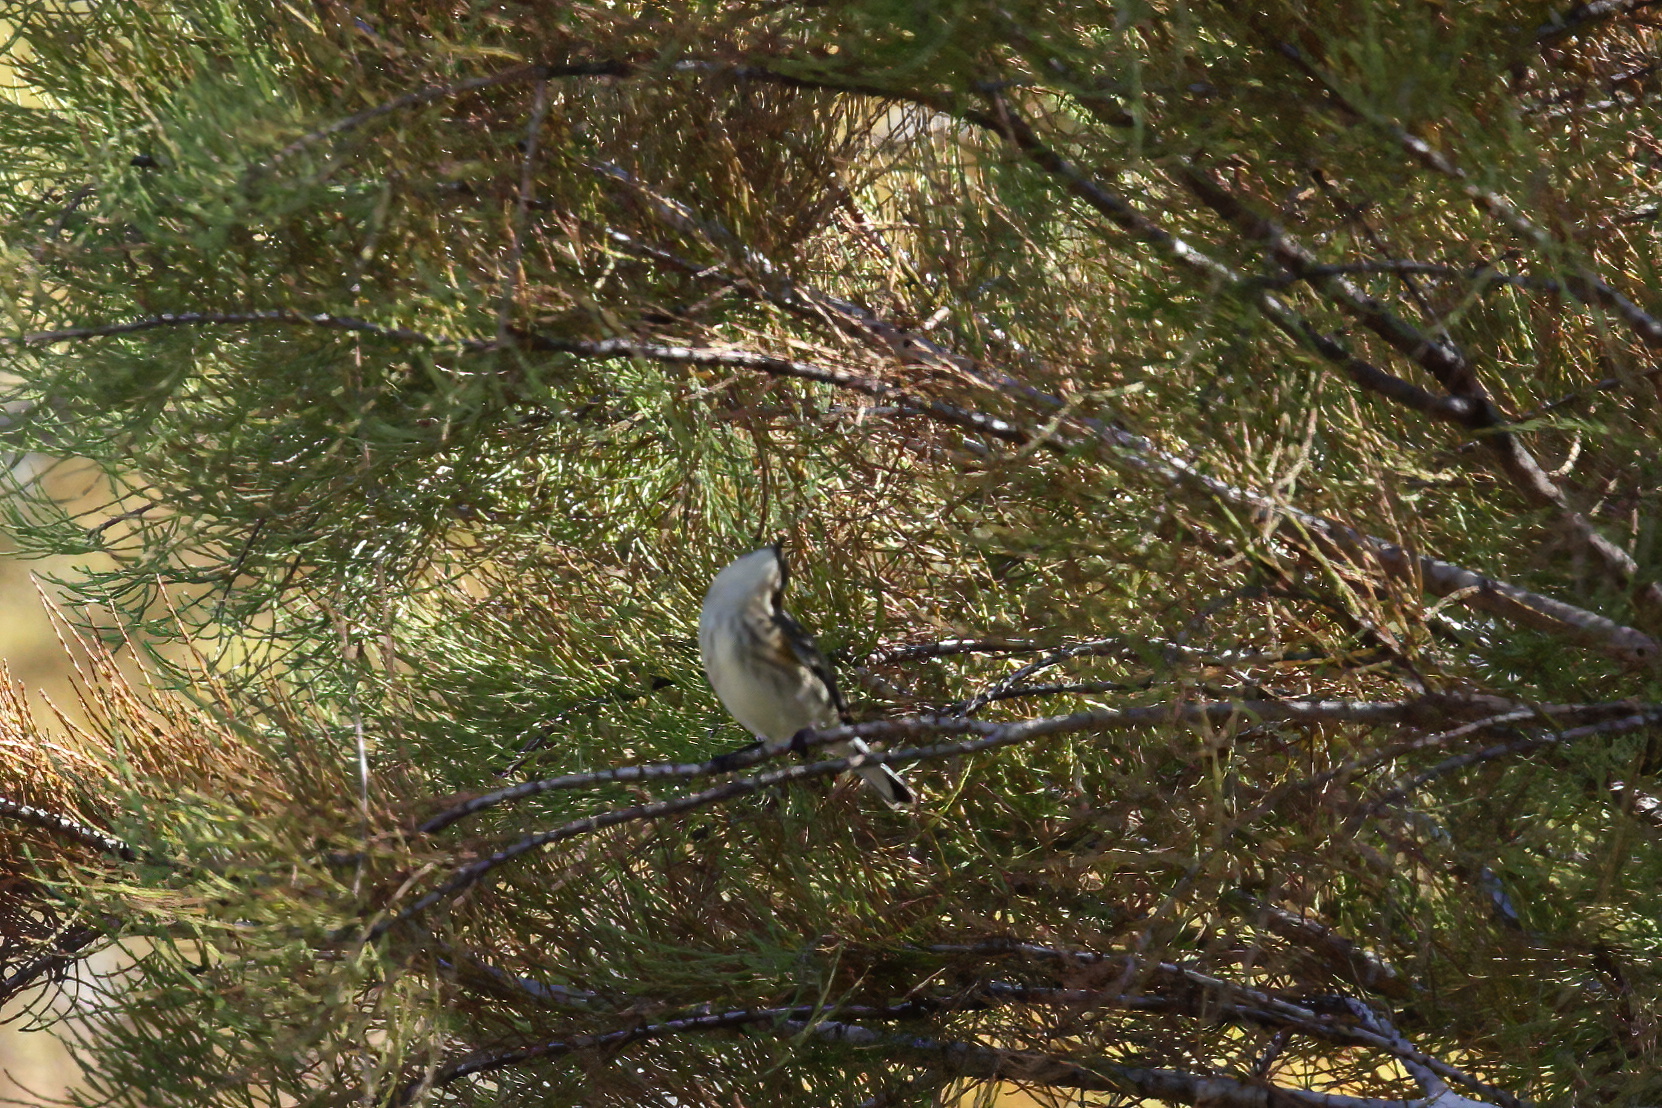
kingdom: Animalia
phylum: Chordata
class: Aves
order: Passeriformes
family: Parulidae
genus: Setophaga
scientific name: Setophaga coronata
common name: Myrtle warbler
